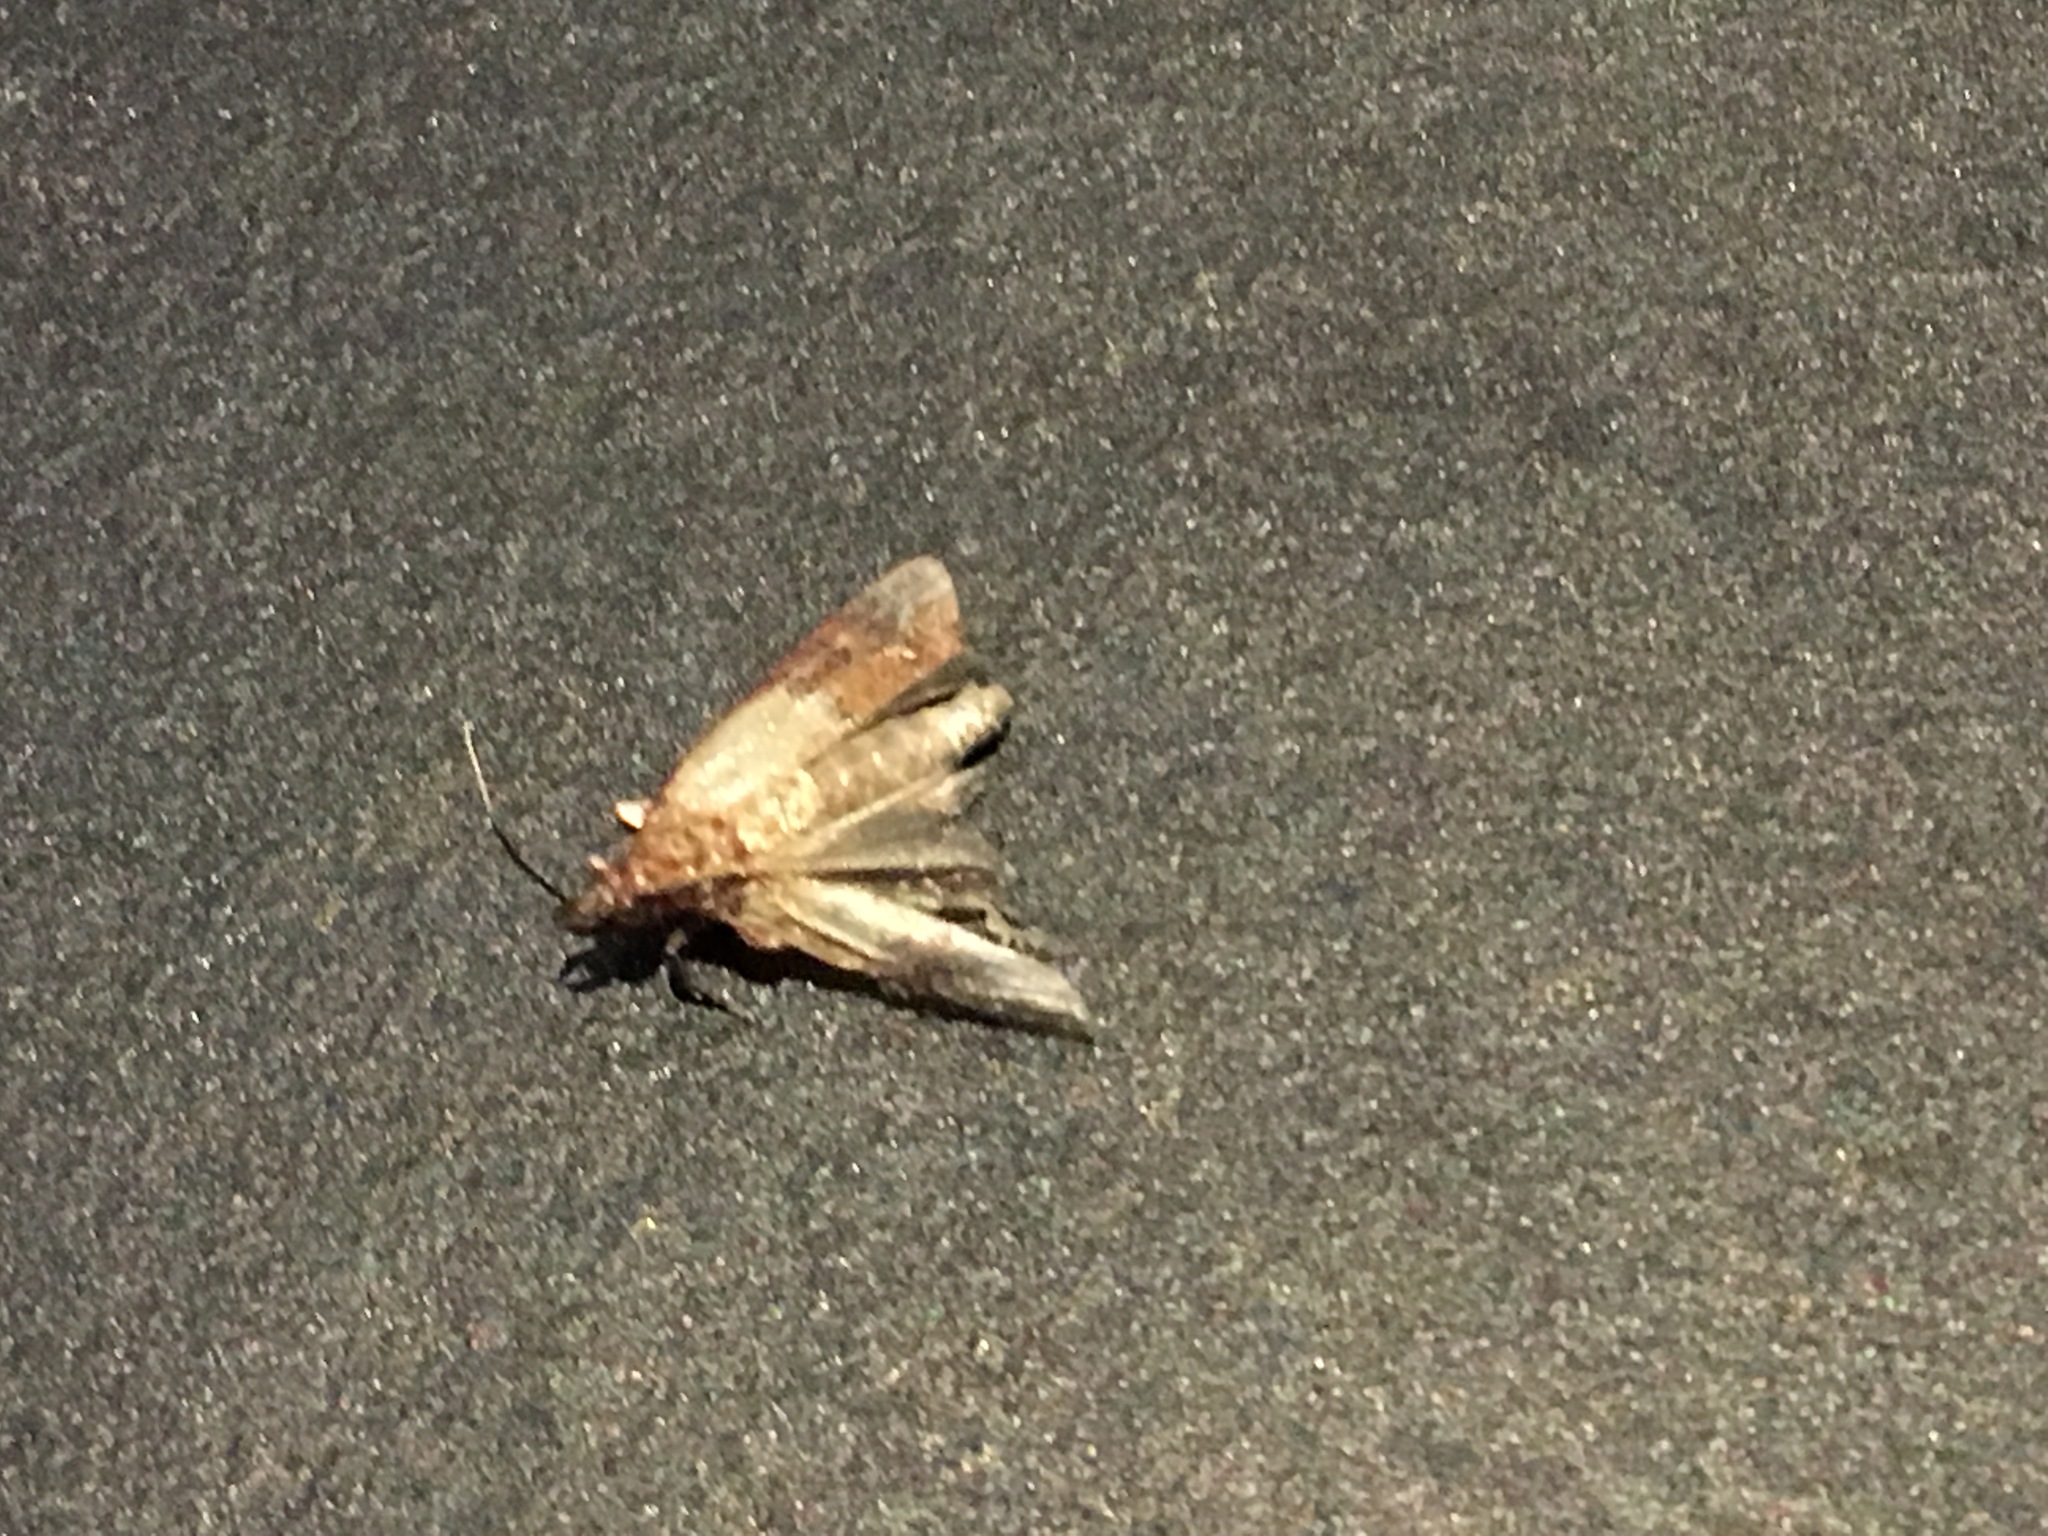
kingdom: Animalia
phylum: Arthropoda
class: Insecta
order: Lepidoptera
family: Pyralidae
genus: Plodia
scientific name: Plodia interpunctella
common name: Indian meal moth
